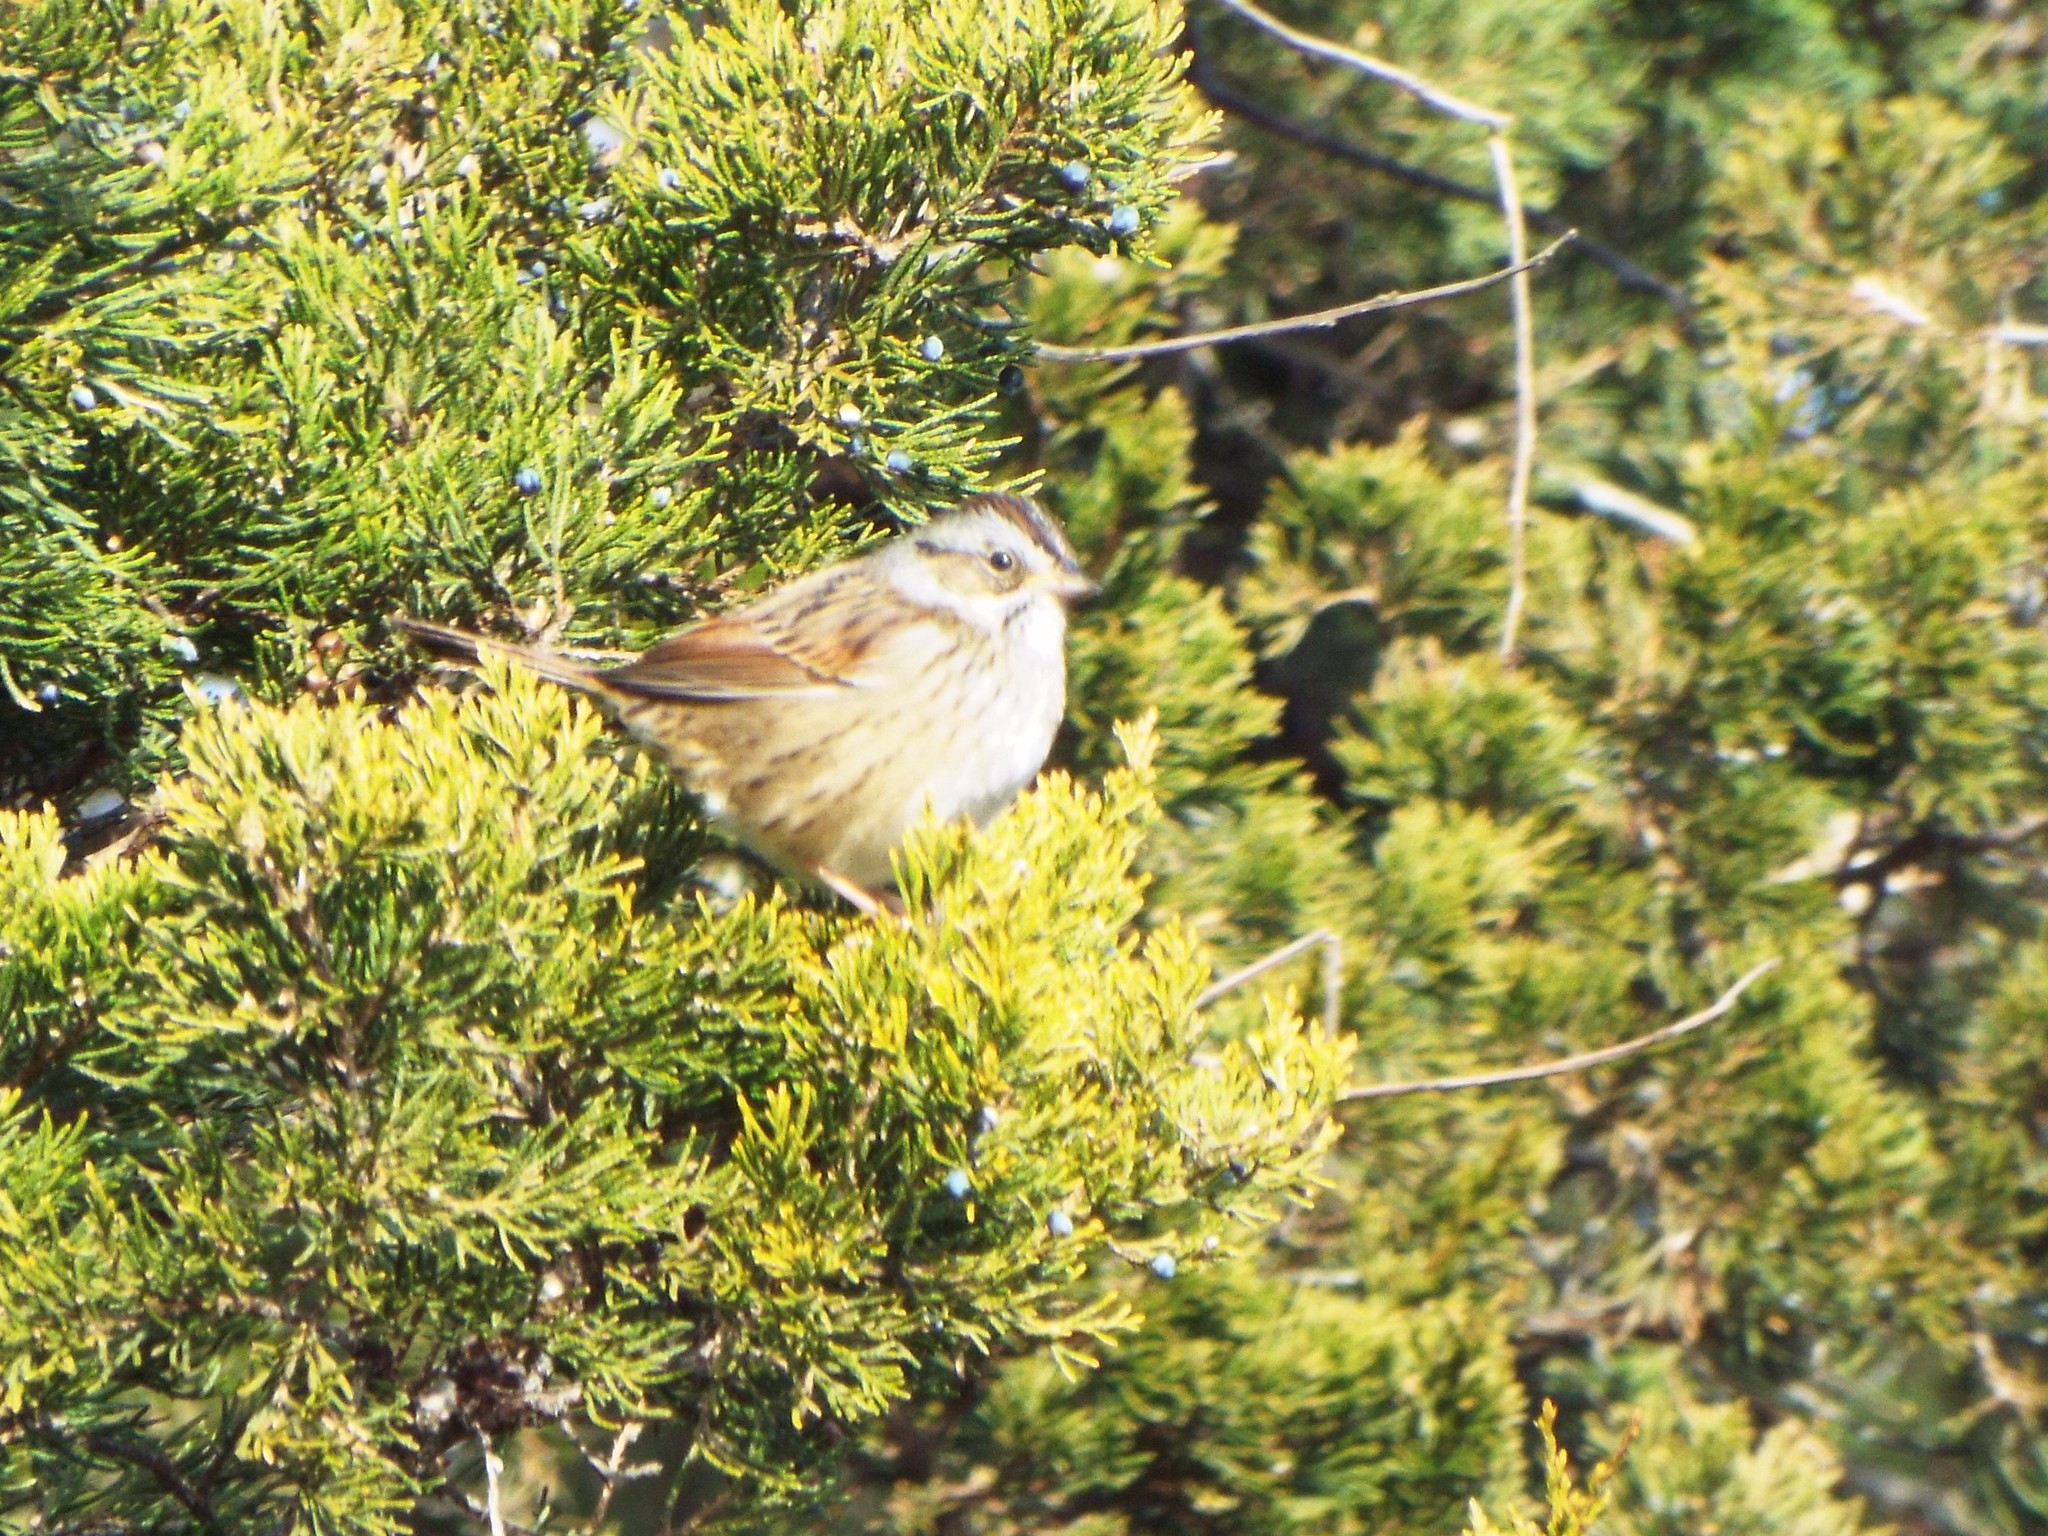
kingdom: Animalia
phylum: Chordata
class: Aves
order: Passeriformes
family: Passerellidae
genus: Melospiza
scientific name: Melospiza georgiana
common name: Swamp sparrow
